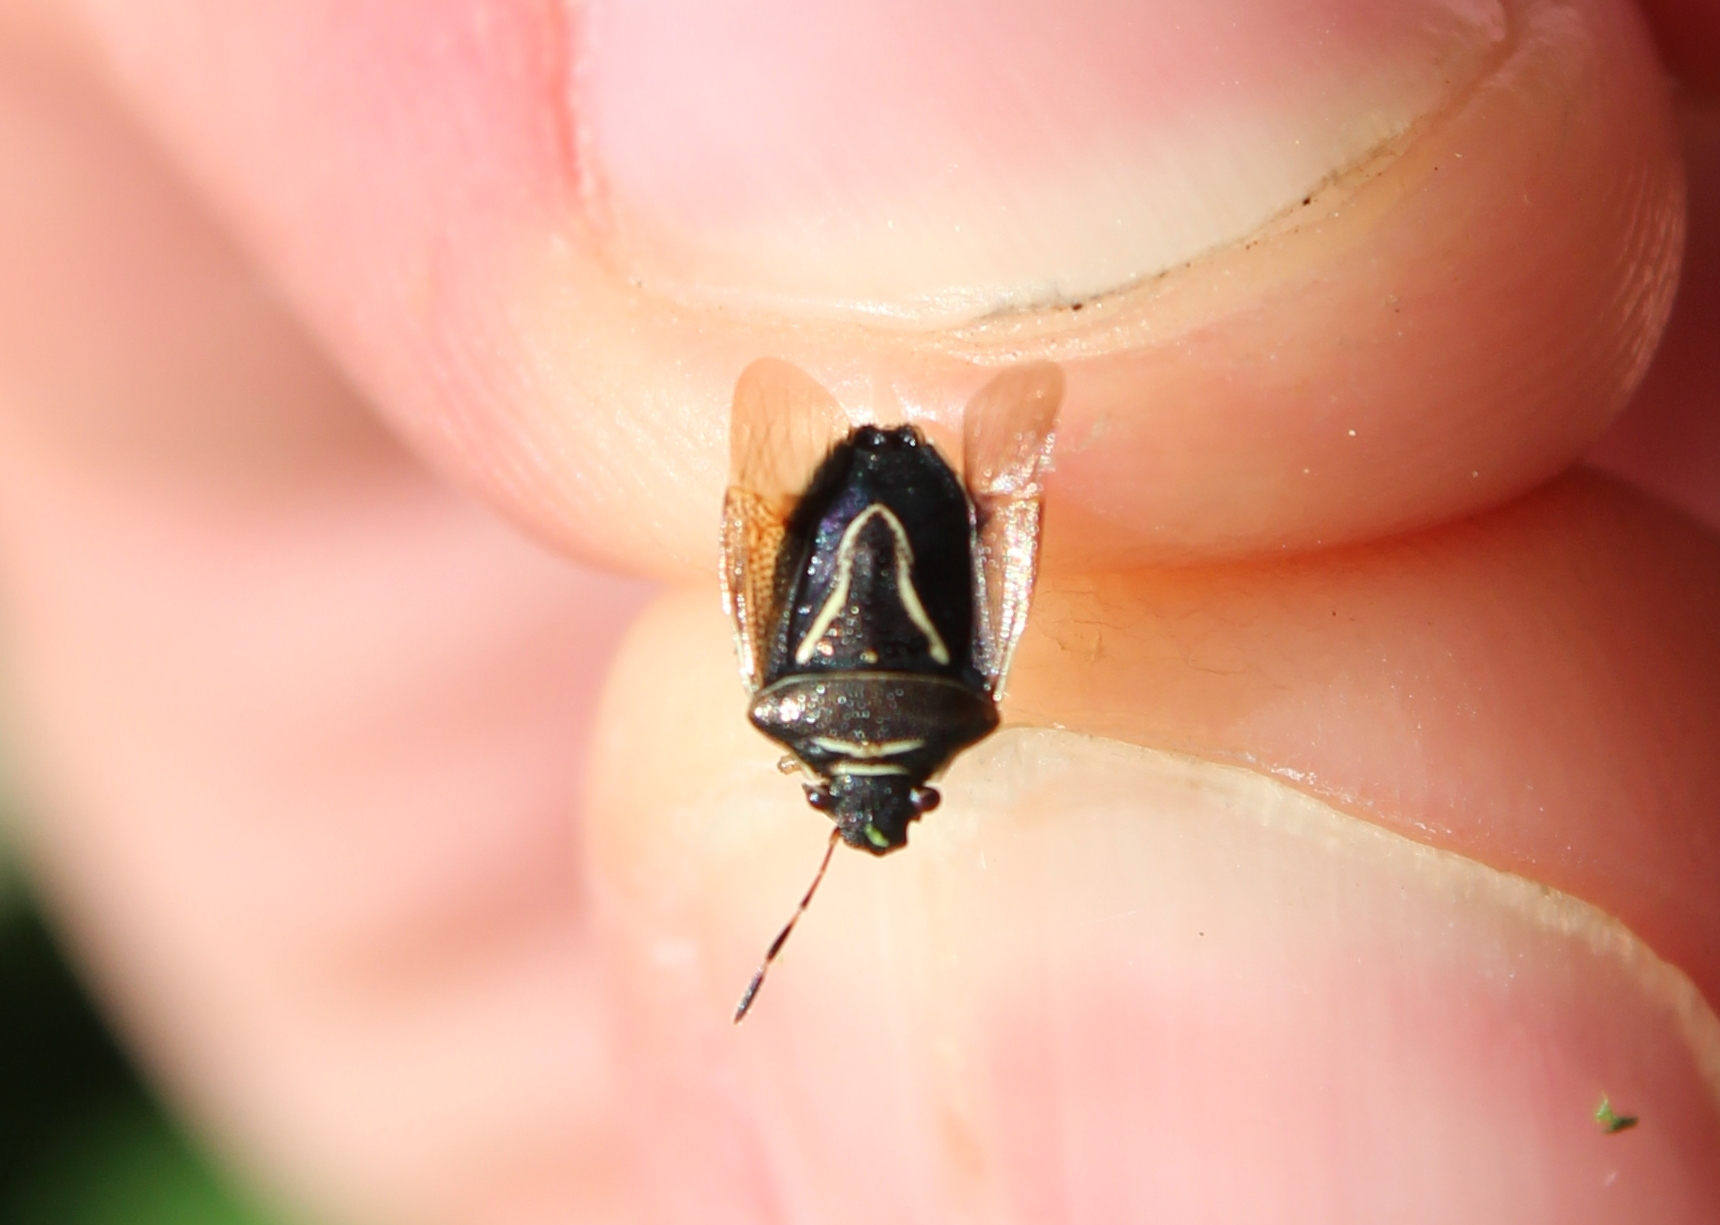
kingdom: Animalia
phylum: Arthropoda
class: Insecta
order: Hemiptera
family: Pentatomidae
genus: Mormidea
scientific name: Mormidea lugens
